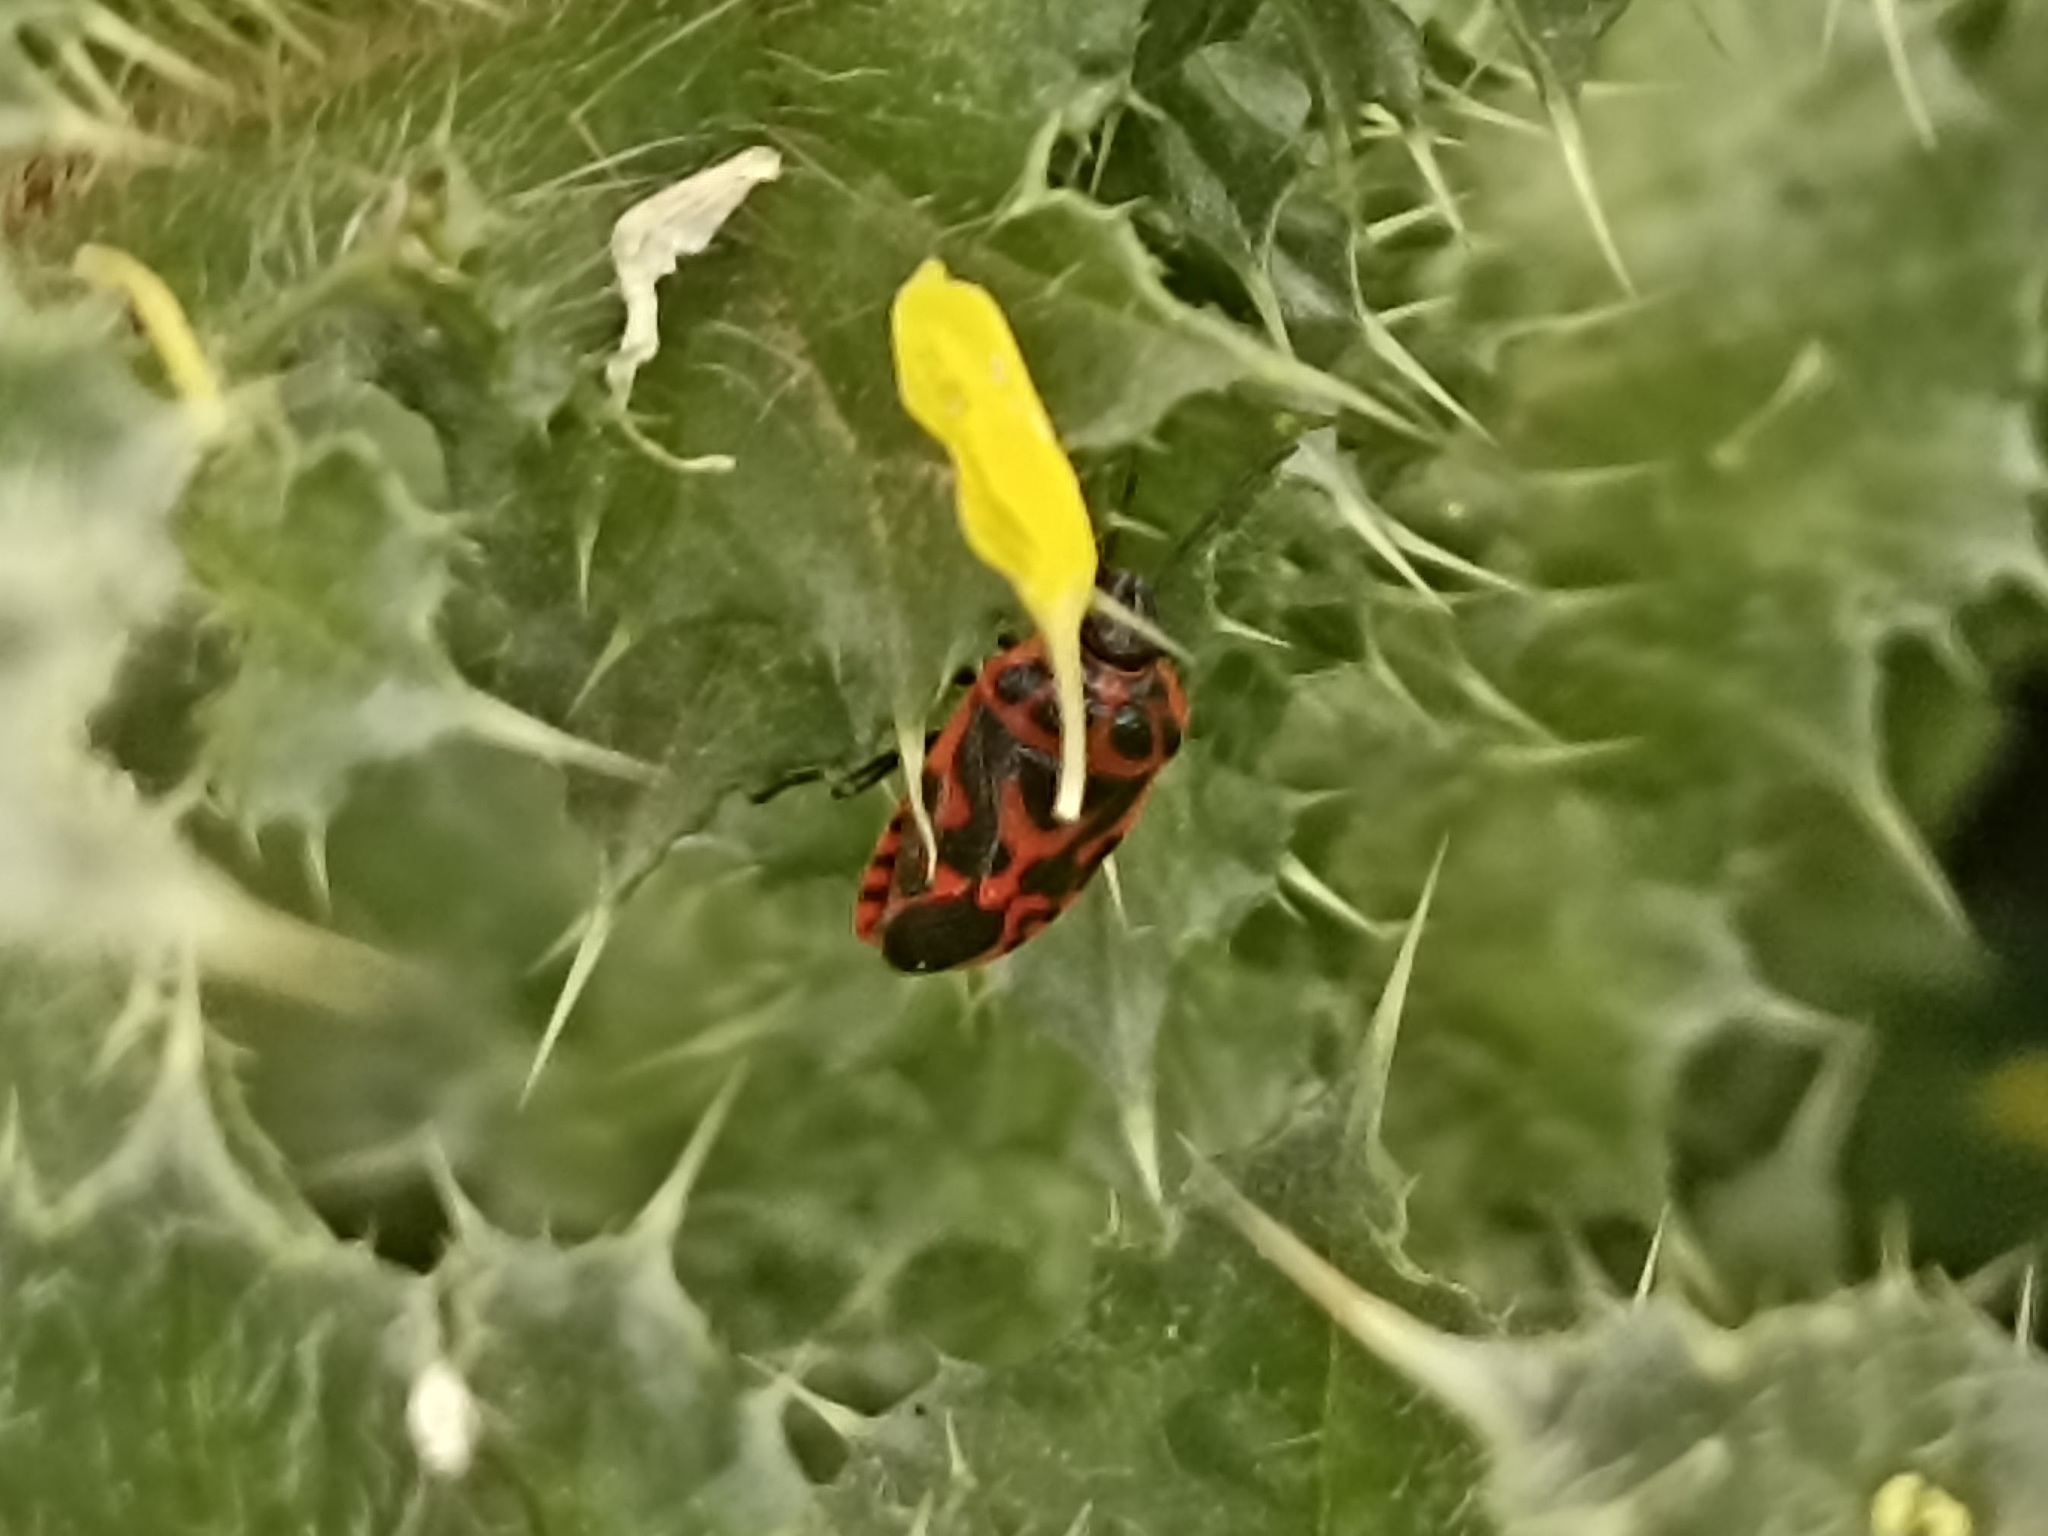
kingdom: Animalia
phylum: Arthropoda
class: Insecta
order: Hemiptera
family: Pentatomidae
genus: Eurydema
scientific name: Eurydema ornata
